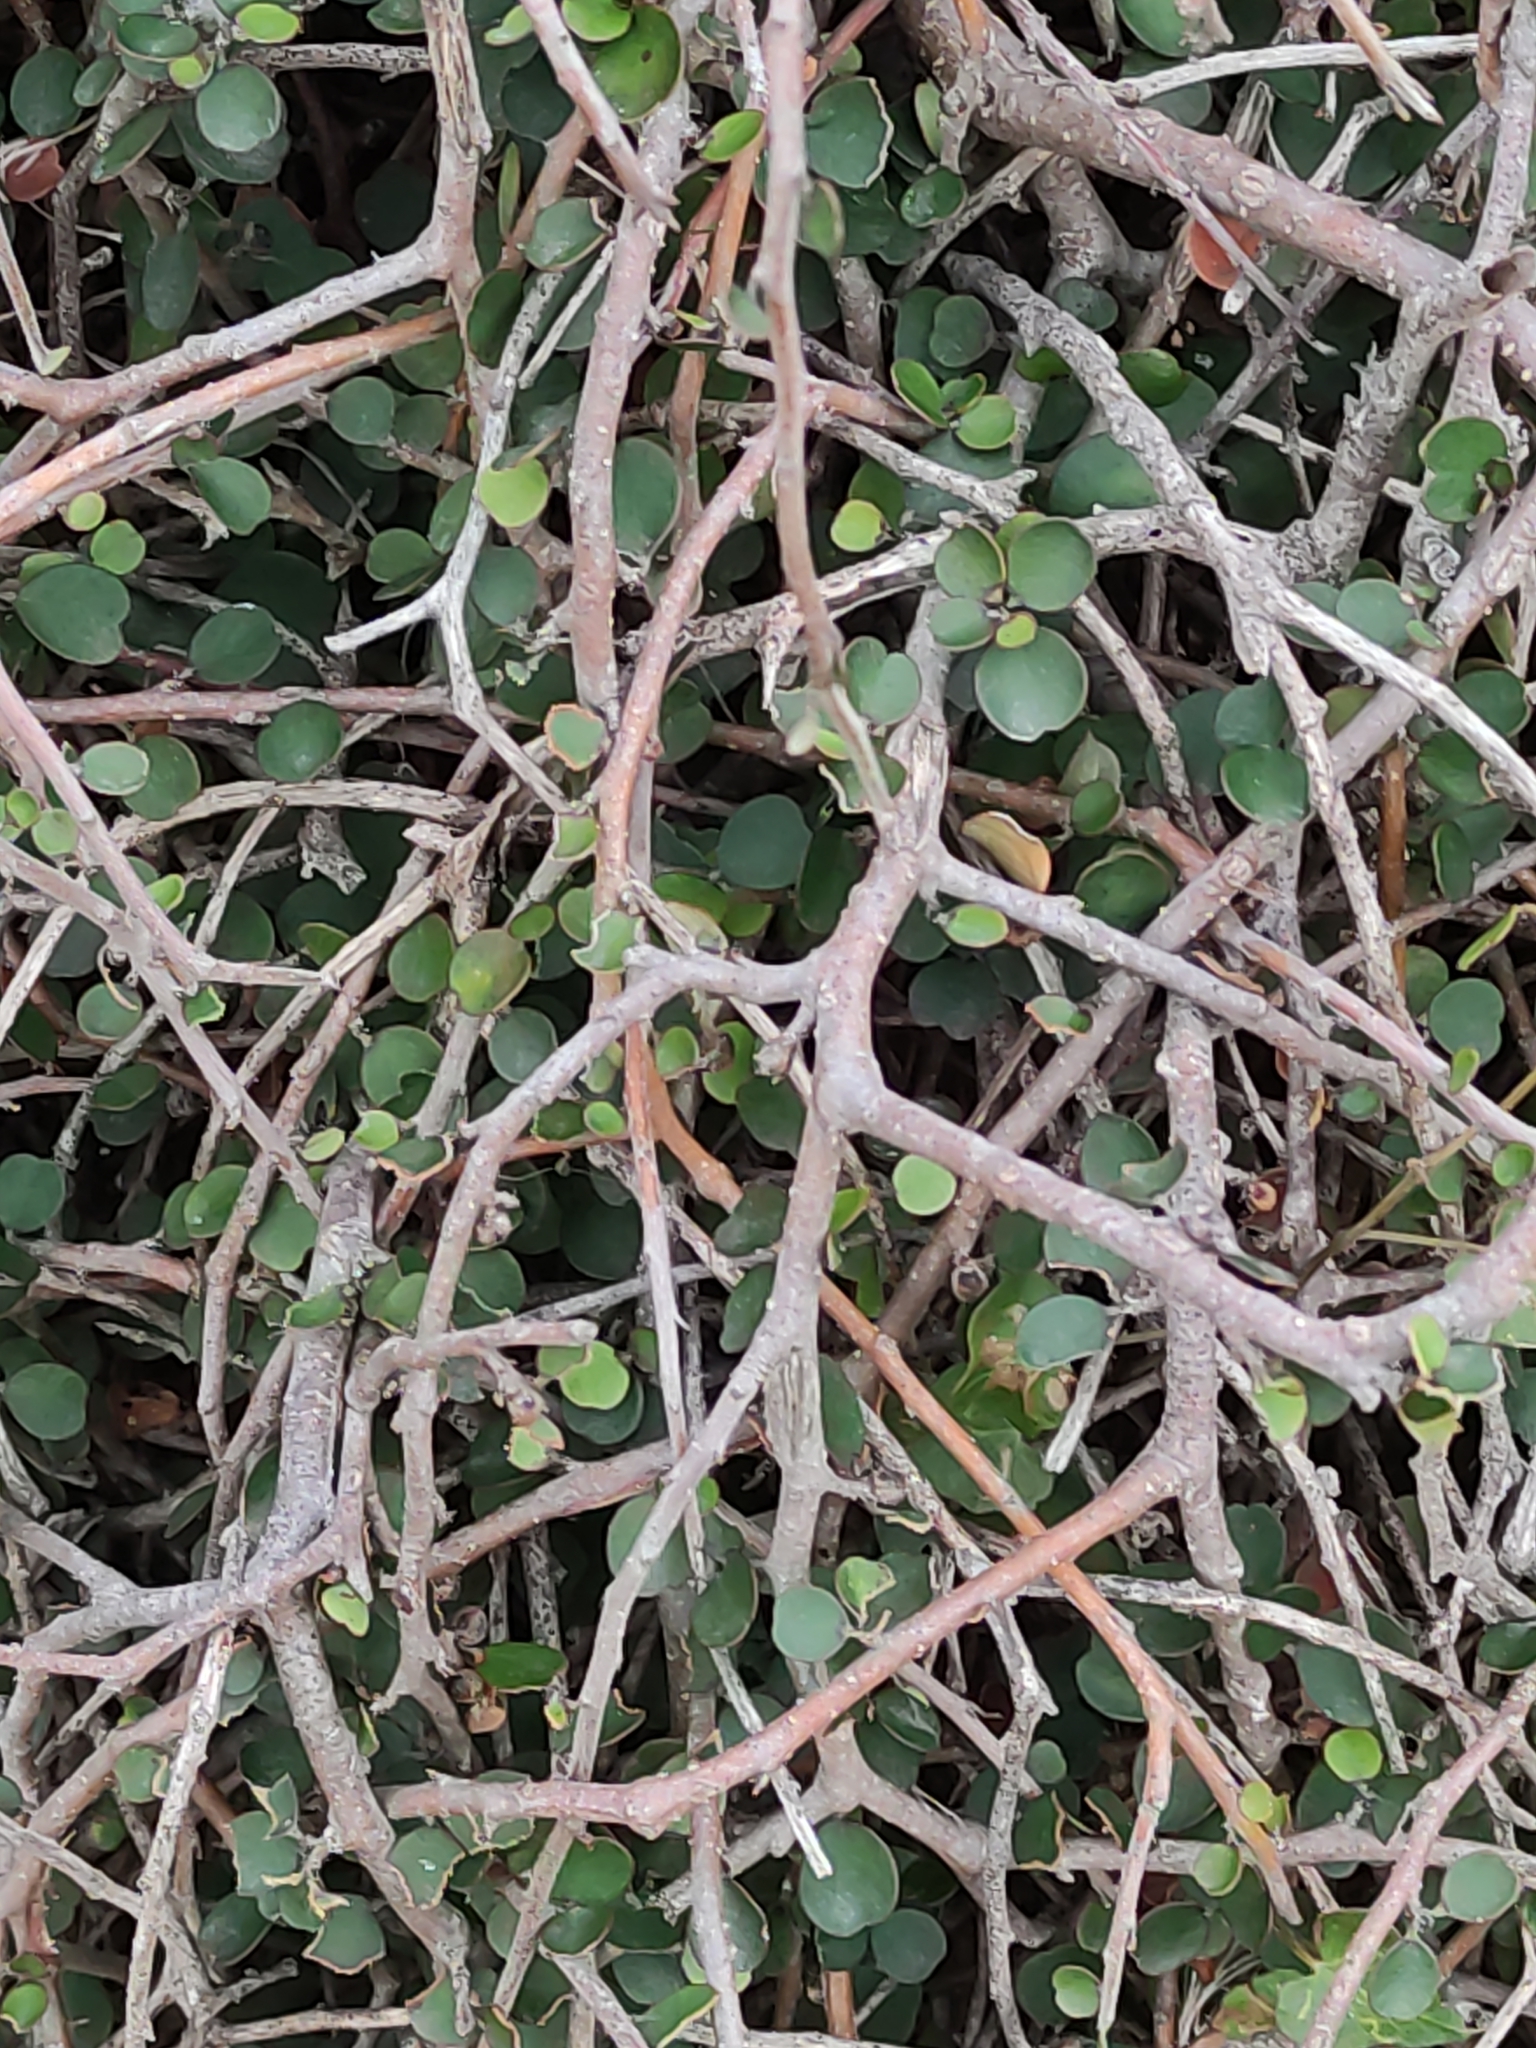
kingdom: Plantae
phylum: Tracheophyta
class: Magnoliopsida
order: Ericales
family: Primulaceae
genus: Myrsine
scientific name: Myrsine divaricata
